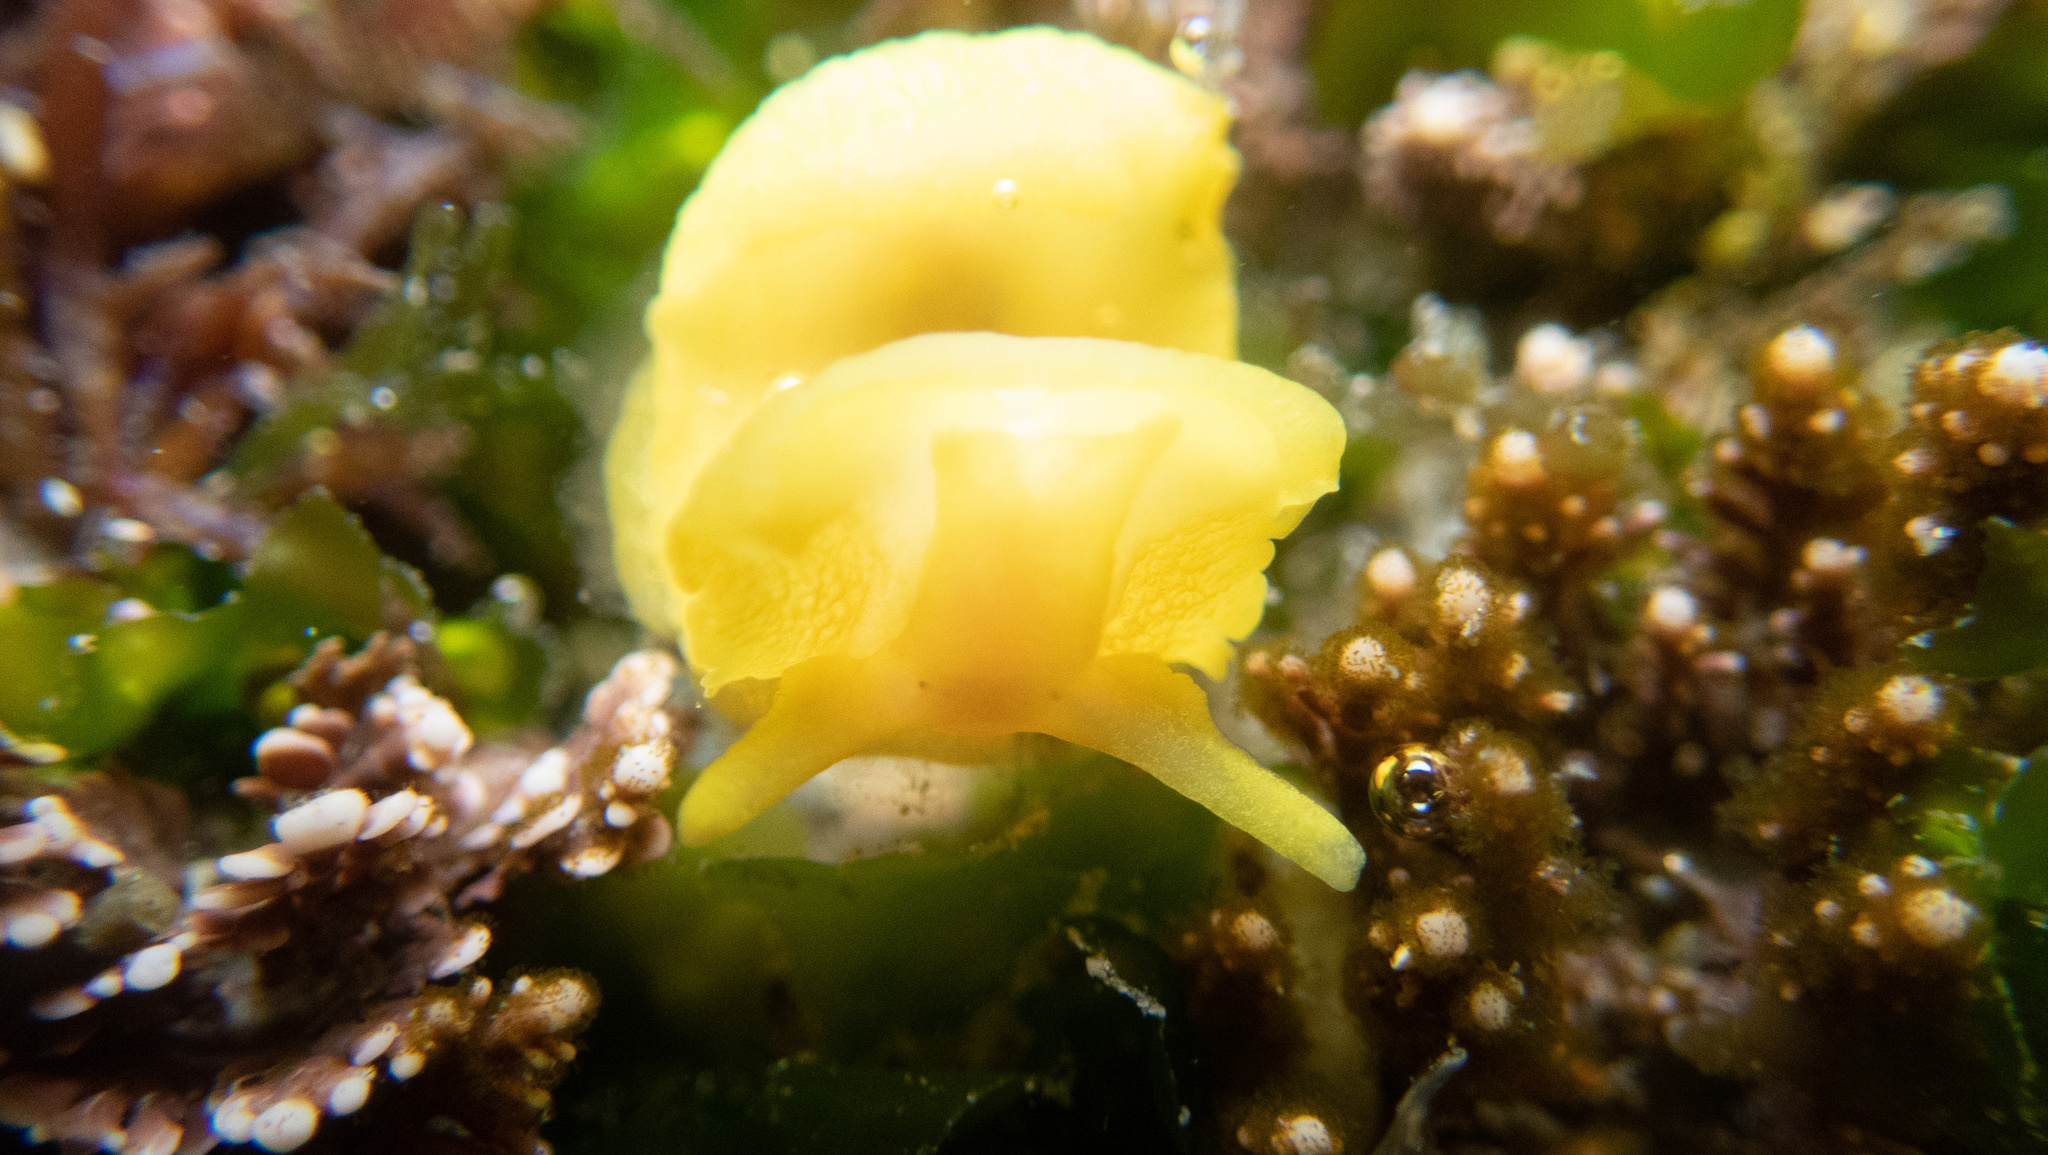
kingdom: Animalia
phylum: Mollusca
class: Gastropoda
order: Umbraculida
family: Tylodinidae
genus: Tylodina
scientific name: Tylodina fungina
